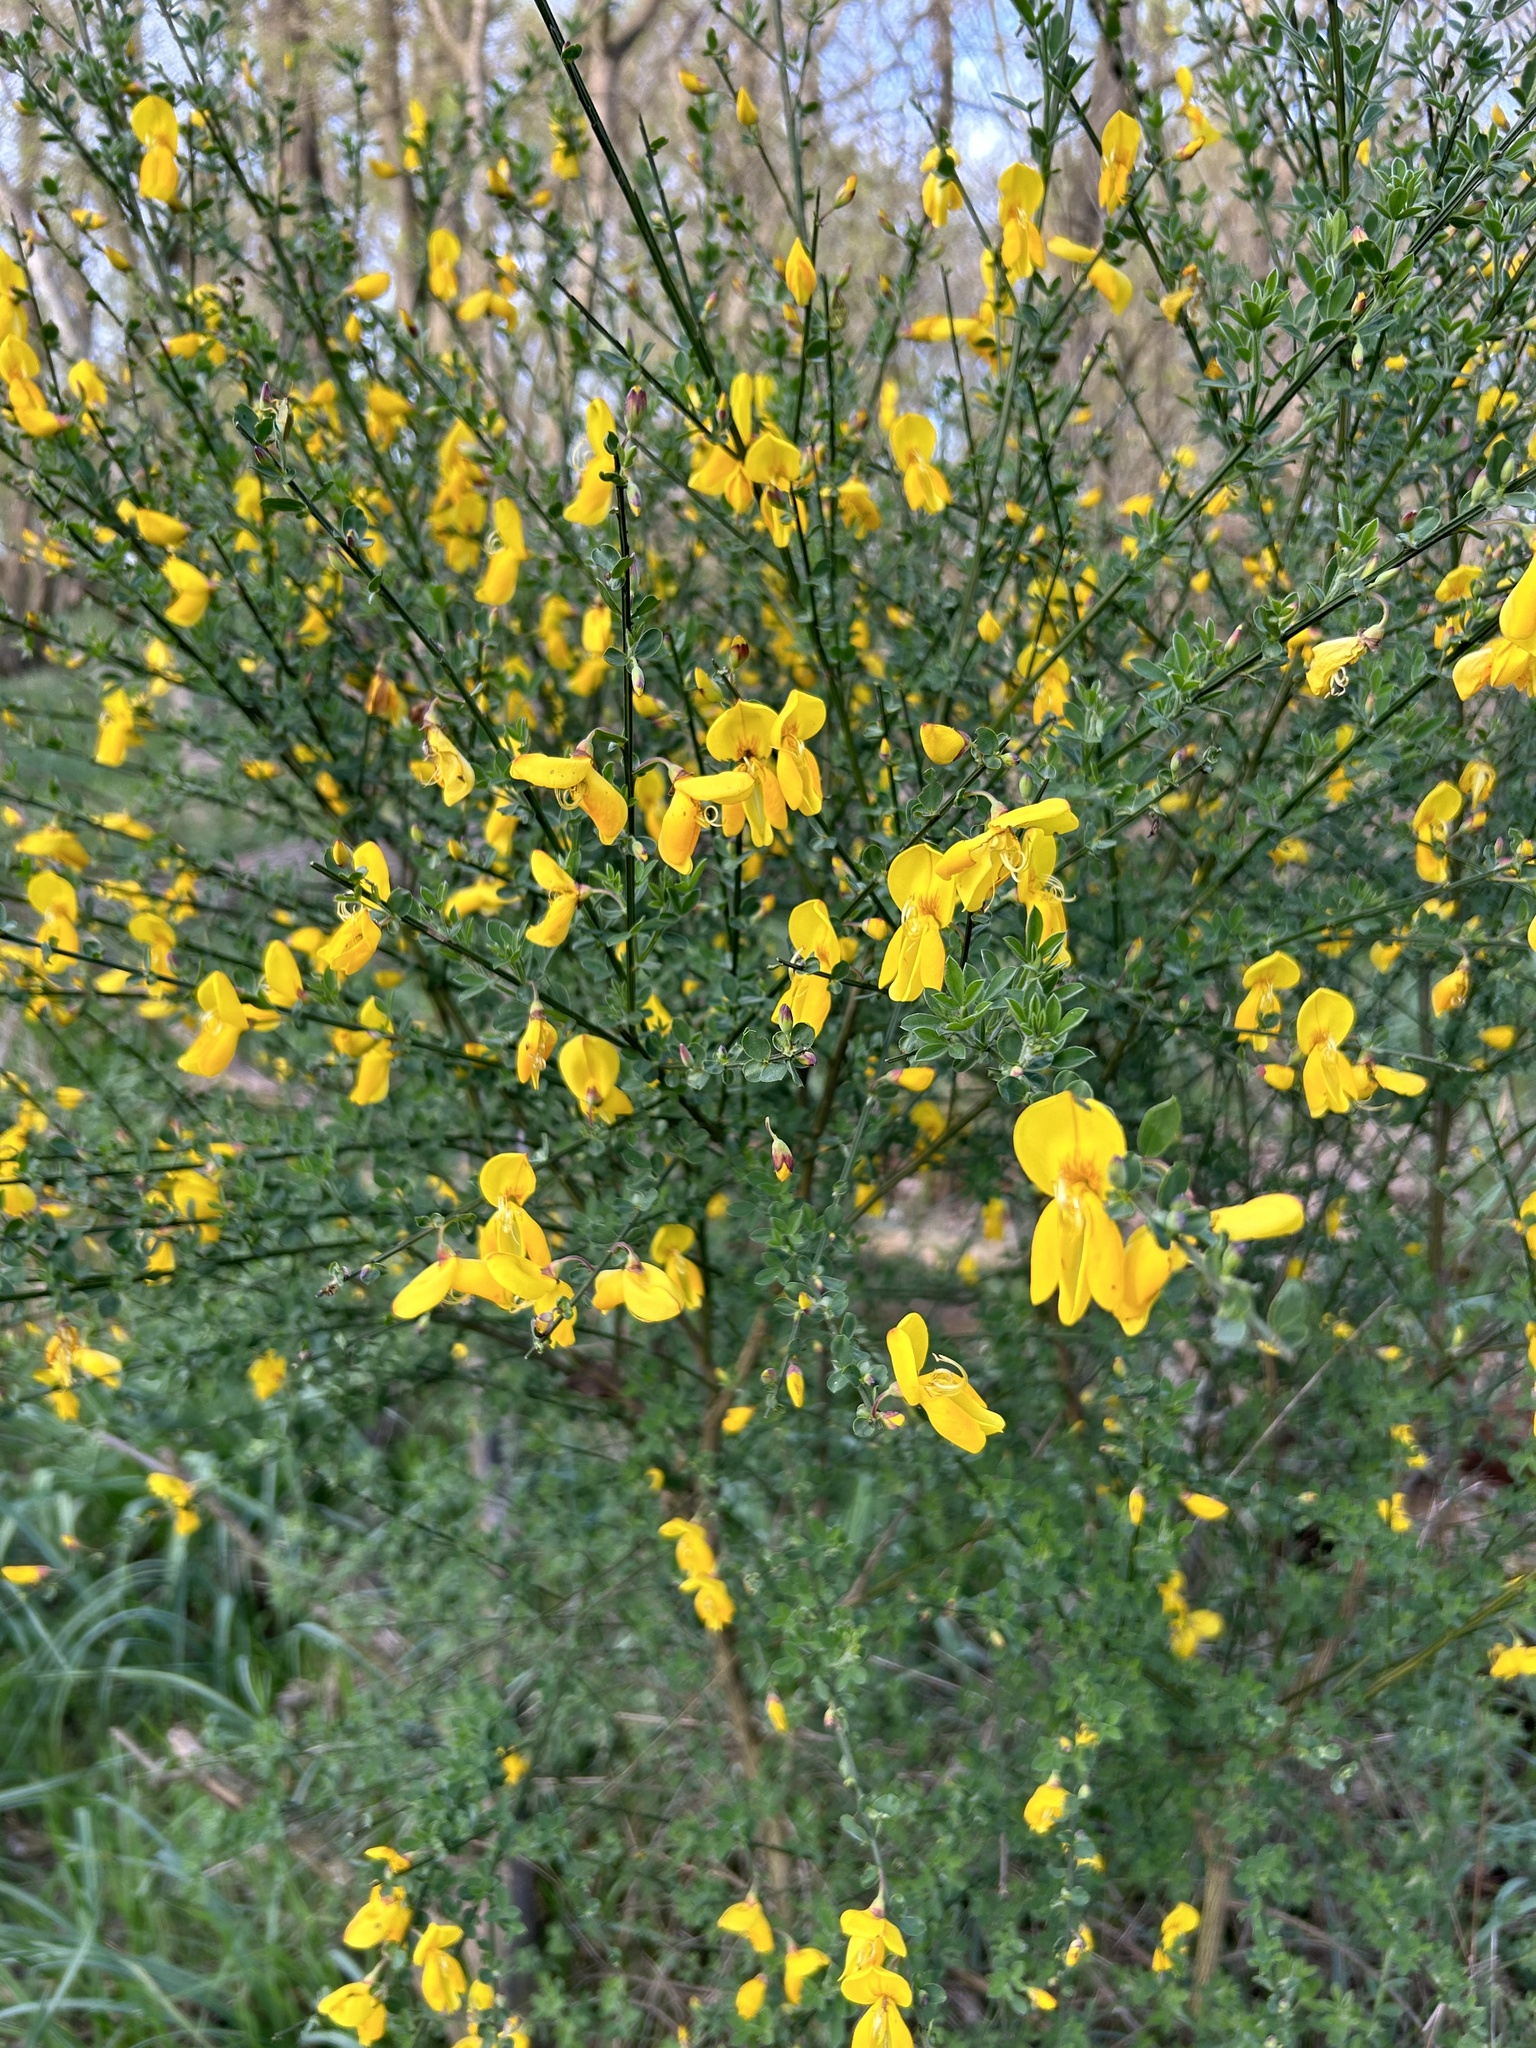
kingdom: Plantae
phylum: Tracheophyta
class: Magnoliopsida
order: Fabales
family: Fabaceae
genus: Cytisus
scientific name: Cytisus scoparius
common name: Scotch broom
